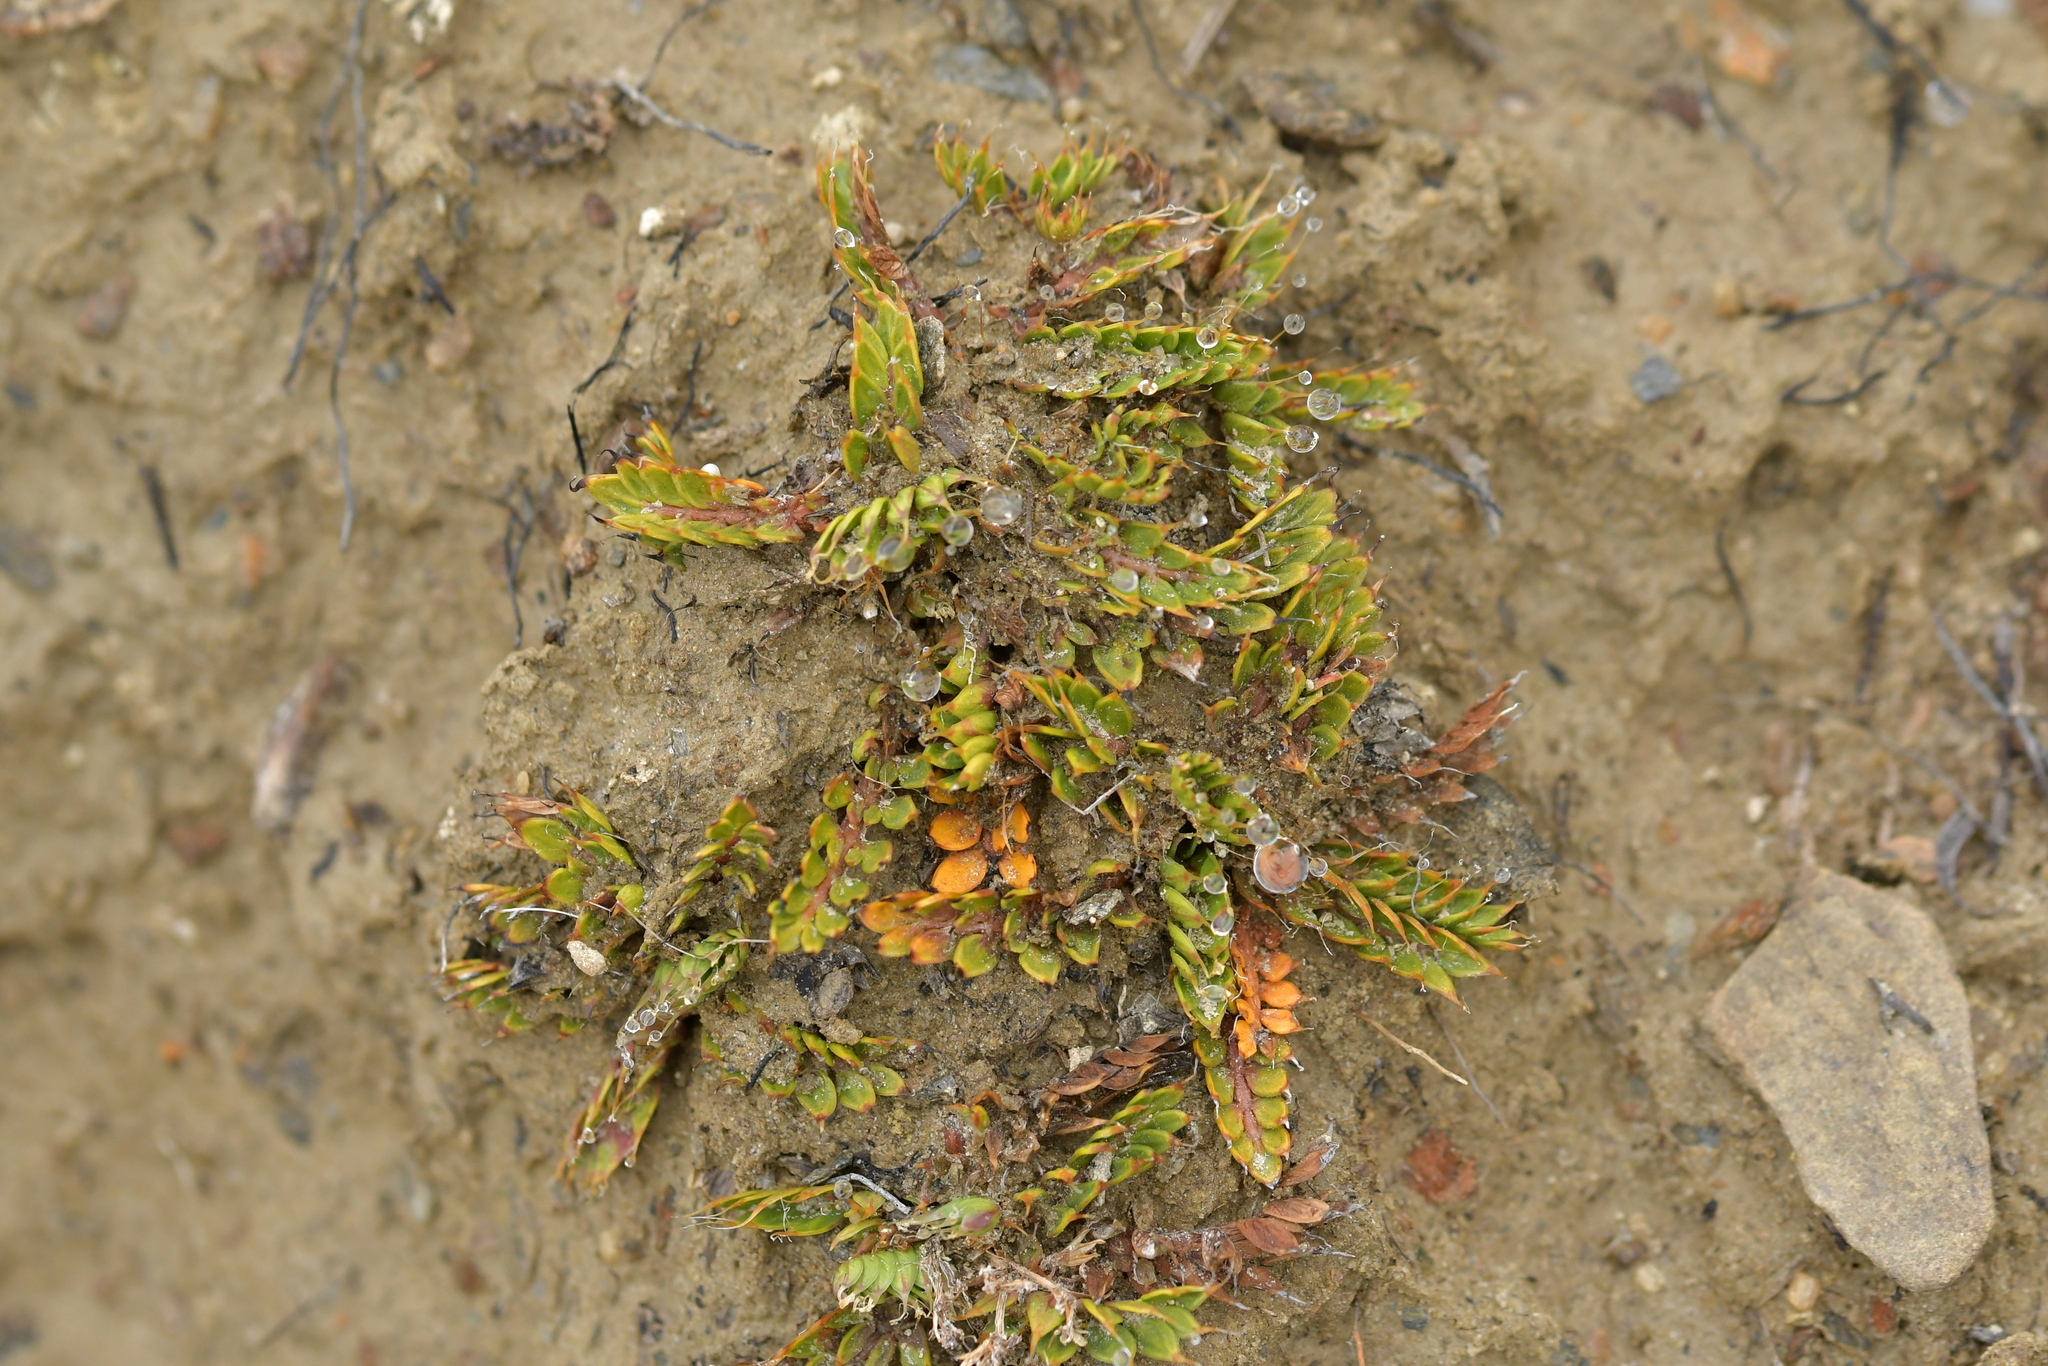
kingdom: Plantae
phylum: Tracheophyta
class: Magnoliopsida
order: Apiales
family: Apiaceae
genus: Anisotome
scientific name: Anisotome flexuosa
